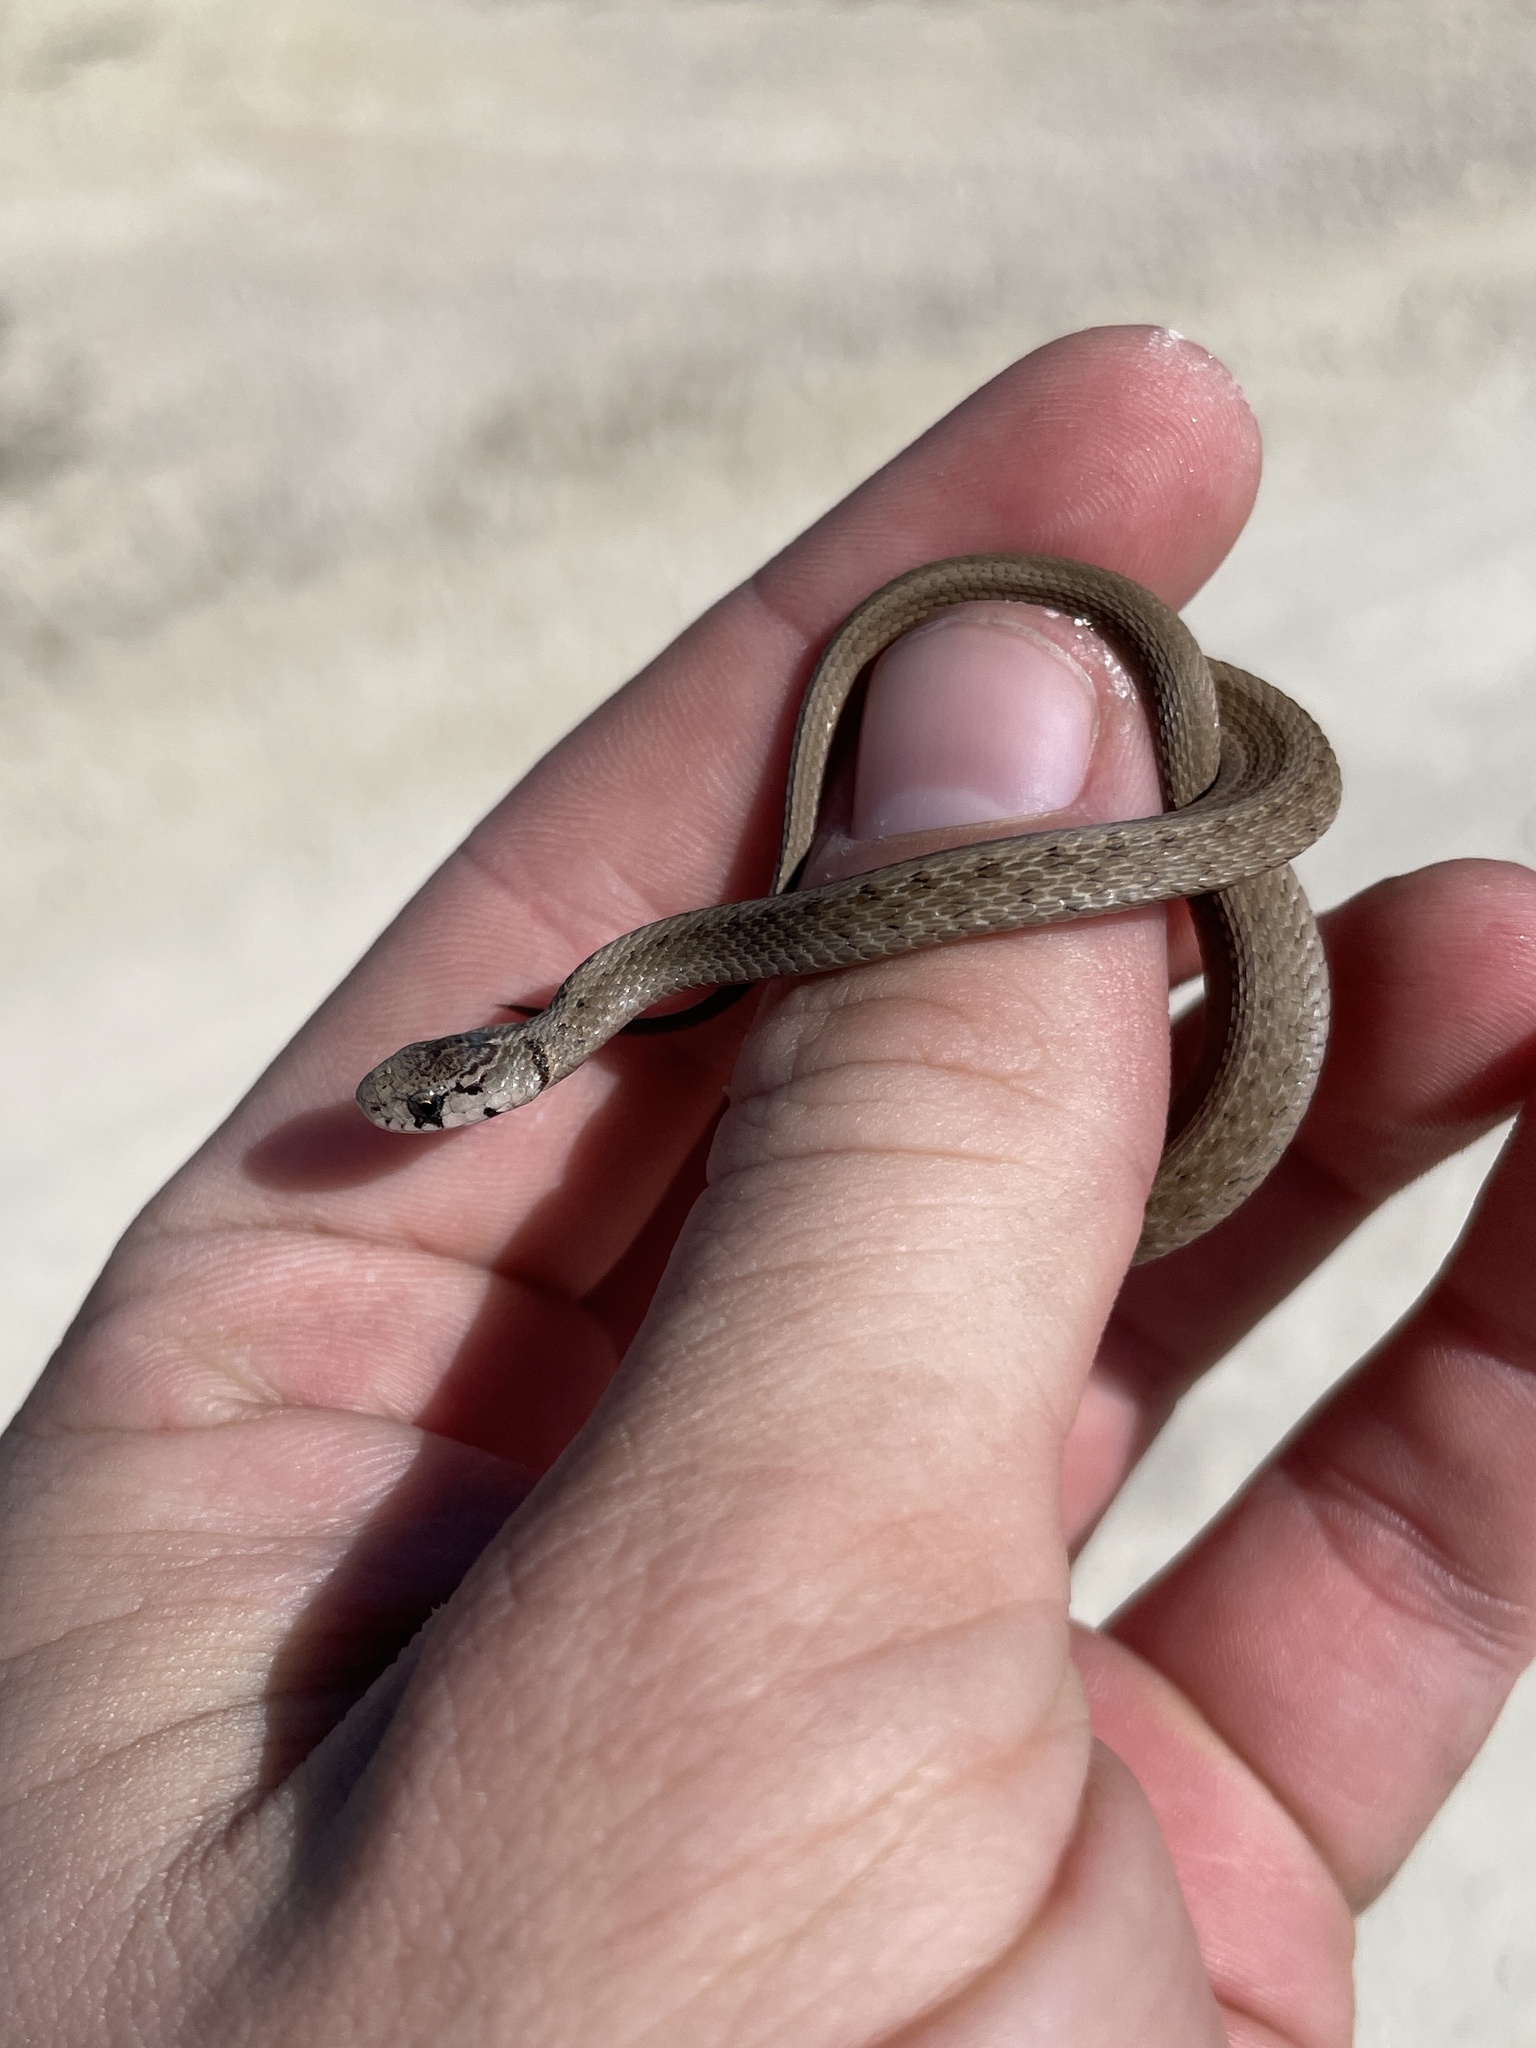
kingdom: Animalia
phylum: Chordata
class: Squamata
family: Colubridae
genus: Storeria
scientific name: Storeria dekayi
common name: (dekay’s) brown snake
